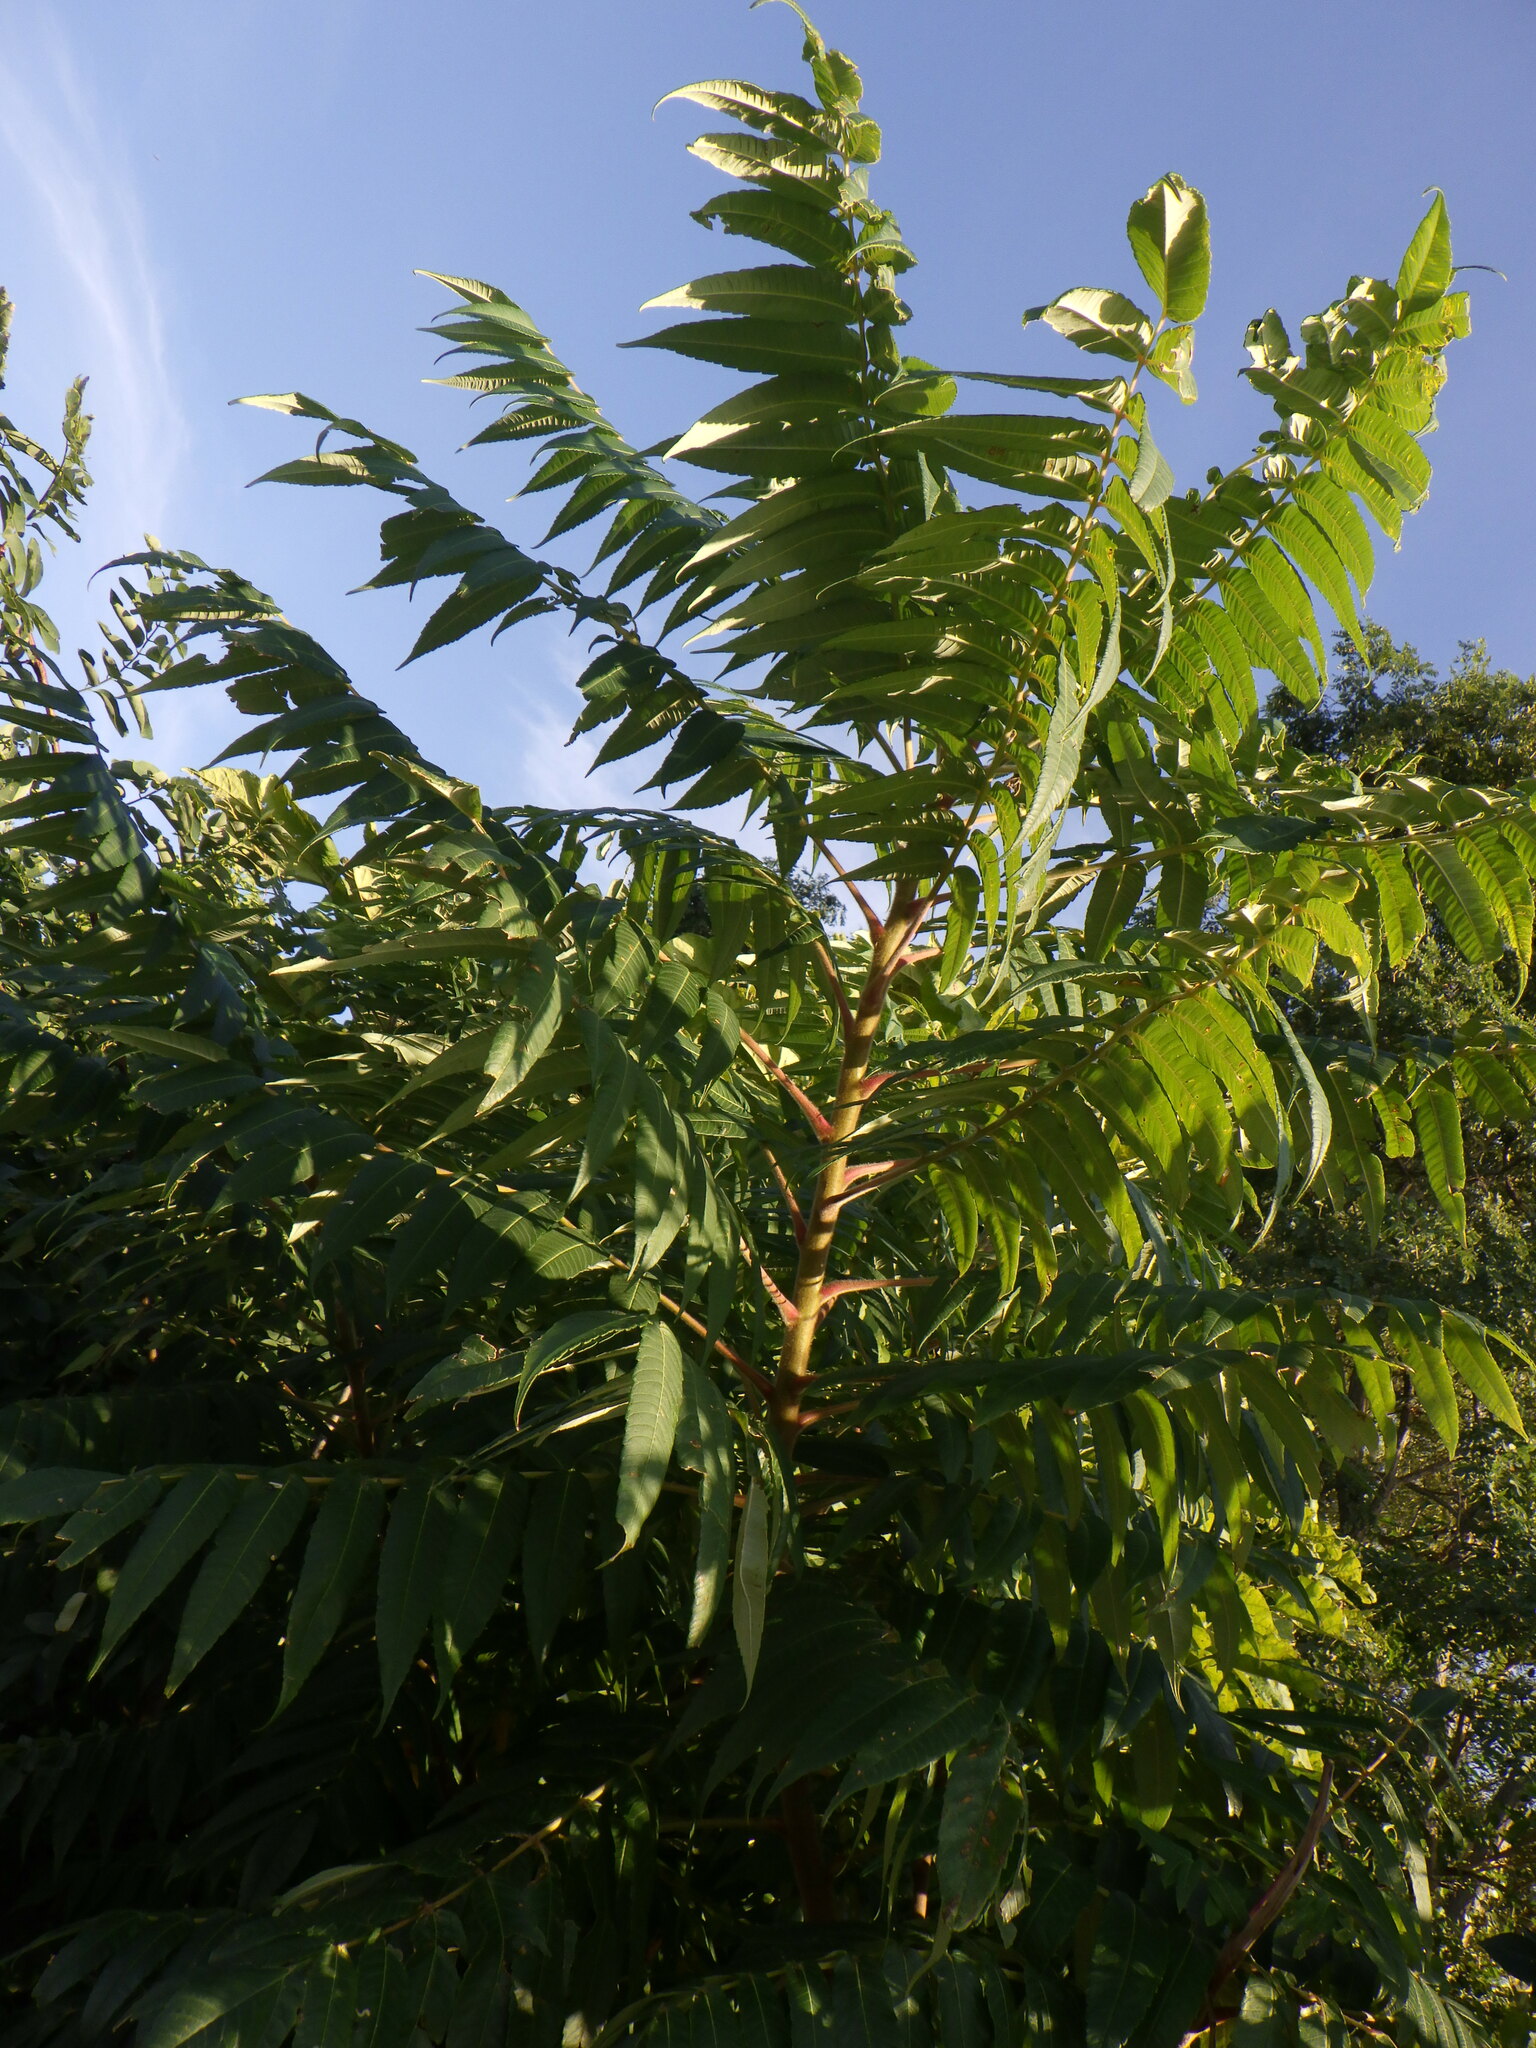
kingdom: Plantae
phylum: Tracheophyta
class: Magnoliopsida
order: Sapindales
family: Anacardiaceae
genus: Rhus
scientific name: Rhus typhina
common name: Staghorn sumac
